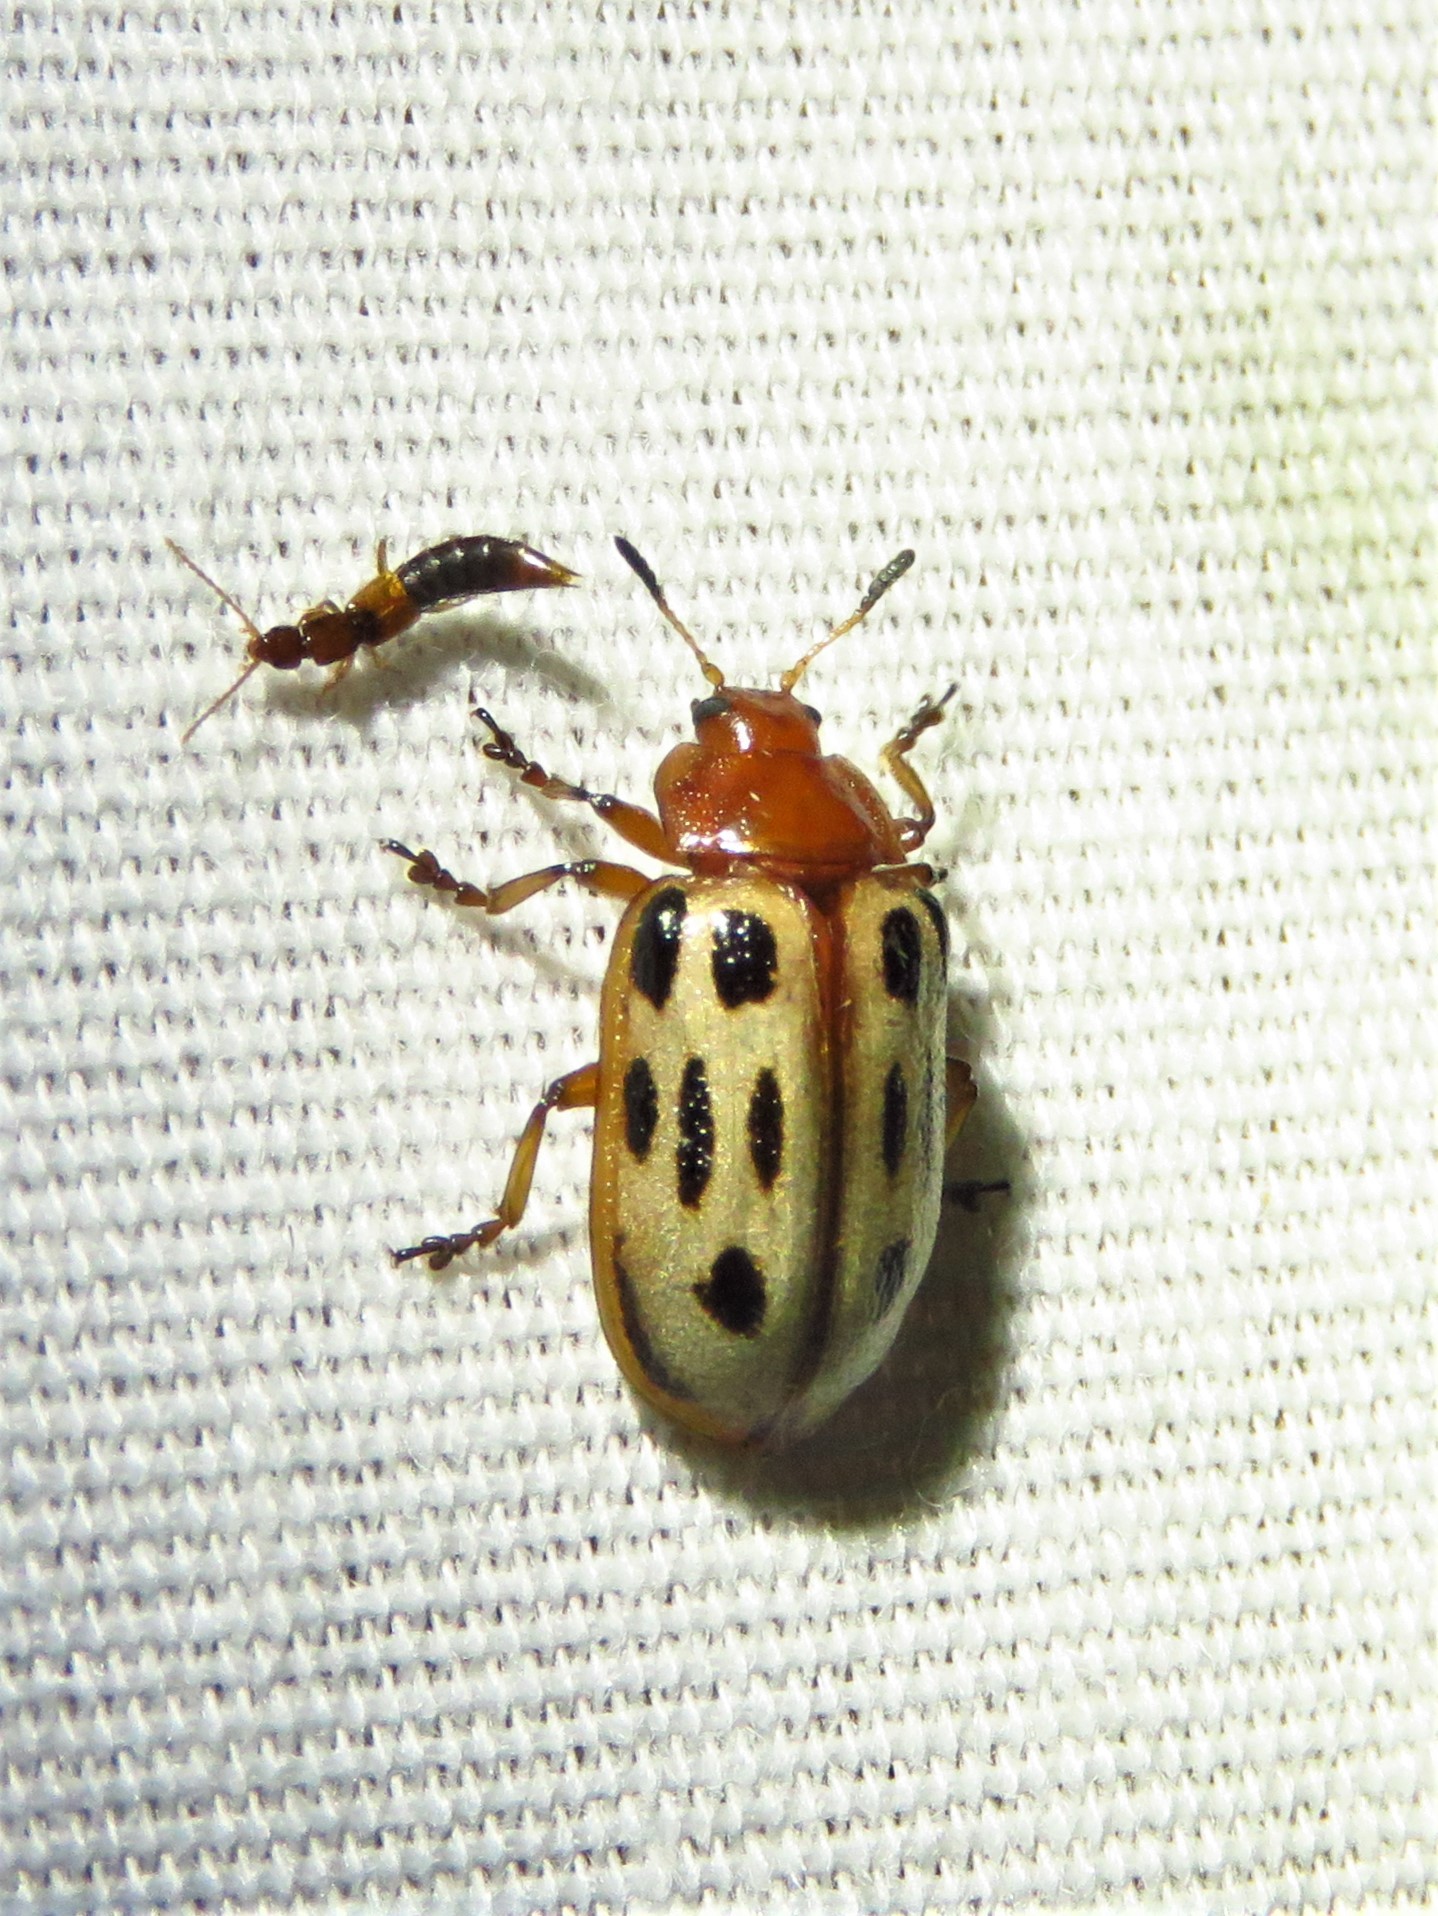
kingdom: Animalia
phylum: Arthropoda
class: Insecta
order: Coleoptera
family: Chrysomelidae
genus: Chrysomela
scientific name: Chrysomela texana
